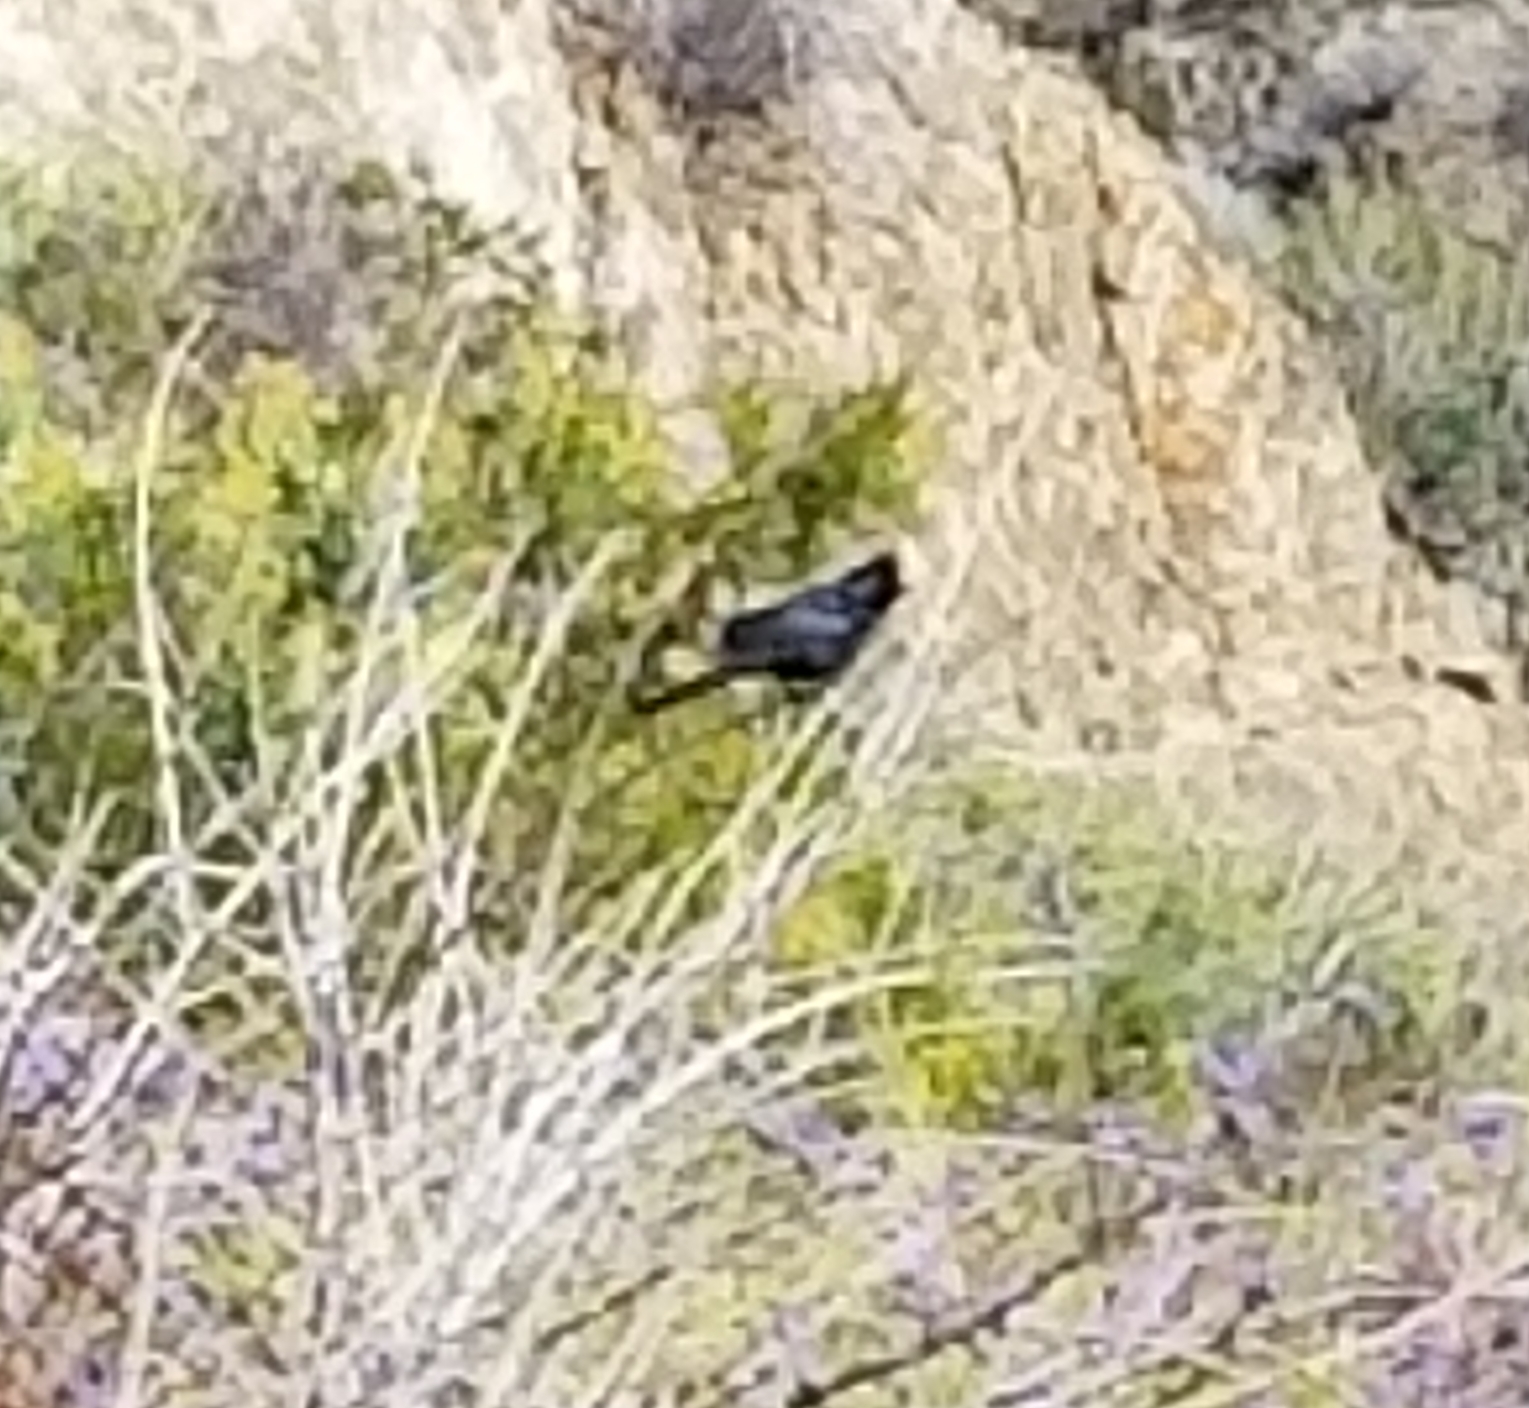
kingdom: Animalia
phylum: Chordata
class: Aves
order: Passeriformes
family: Ptilogonatidae
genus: Phainopepla
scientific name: Phainopepla nitens
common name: Phainopepla
